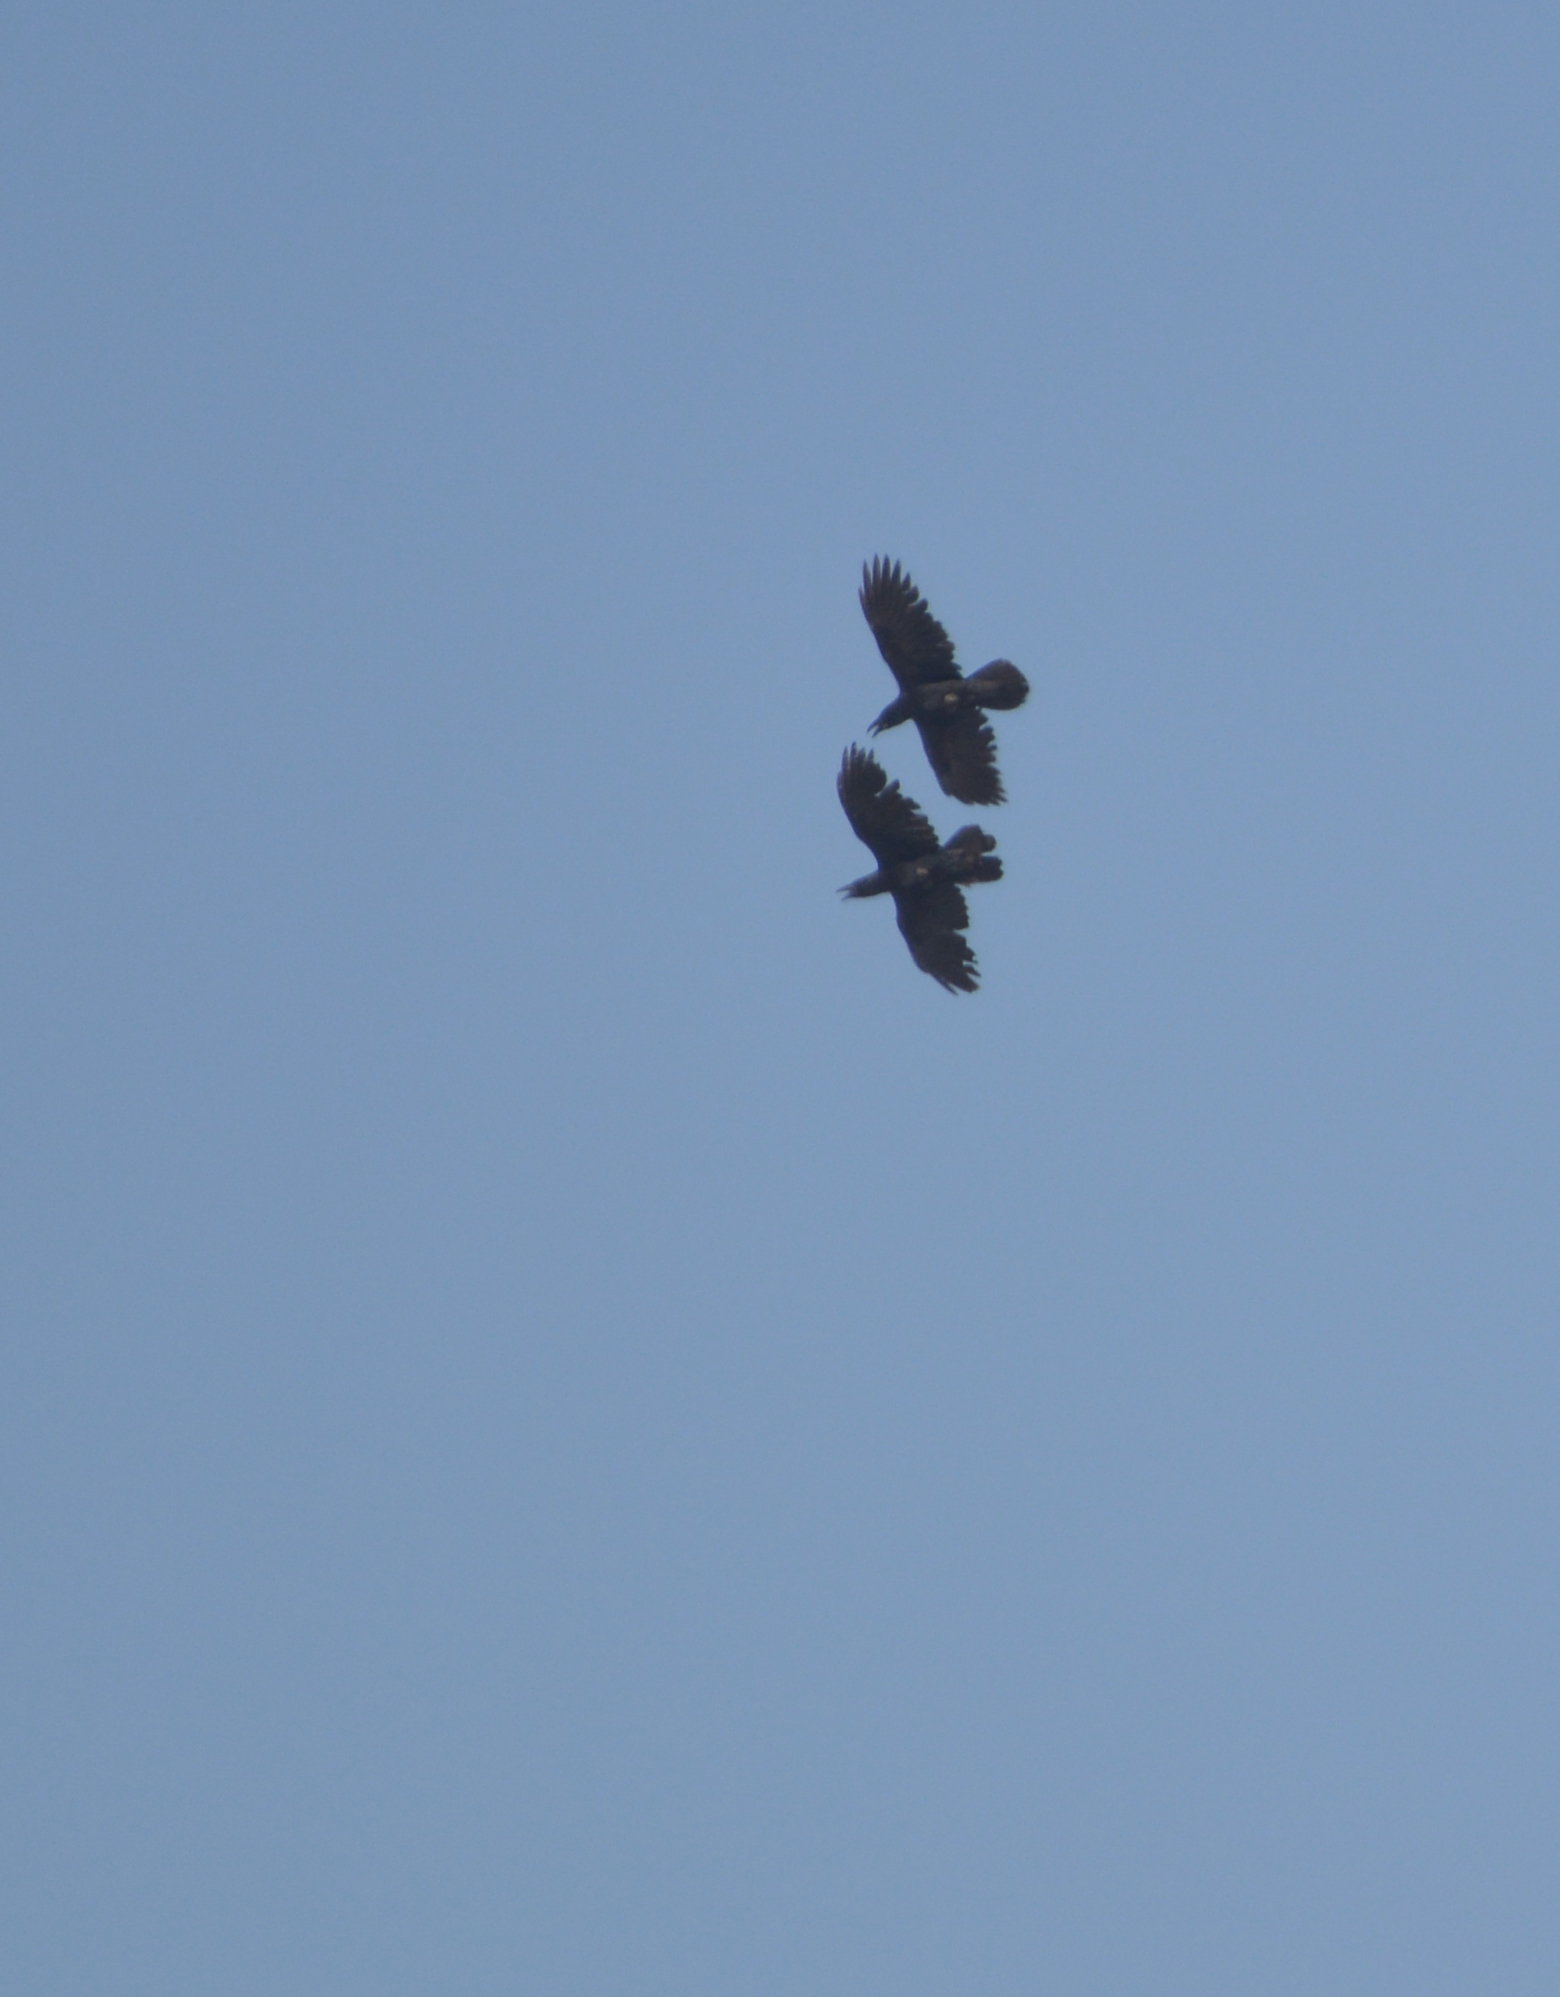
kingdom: Animalia
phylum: Chordata
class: Aves
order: Passeriformes
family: Corvidae
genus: Corvus
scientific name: Corvus corax
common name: Common raven
